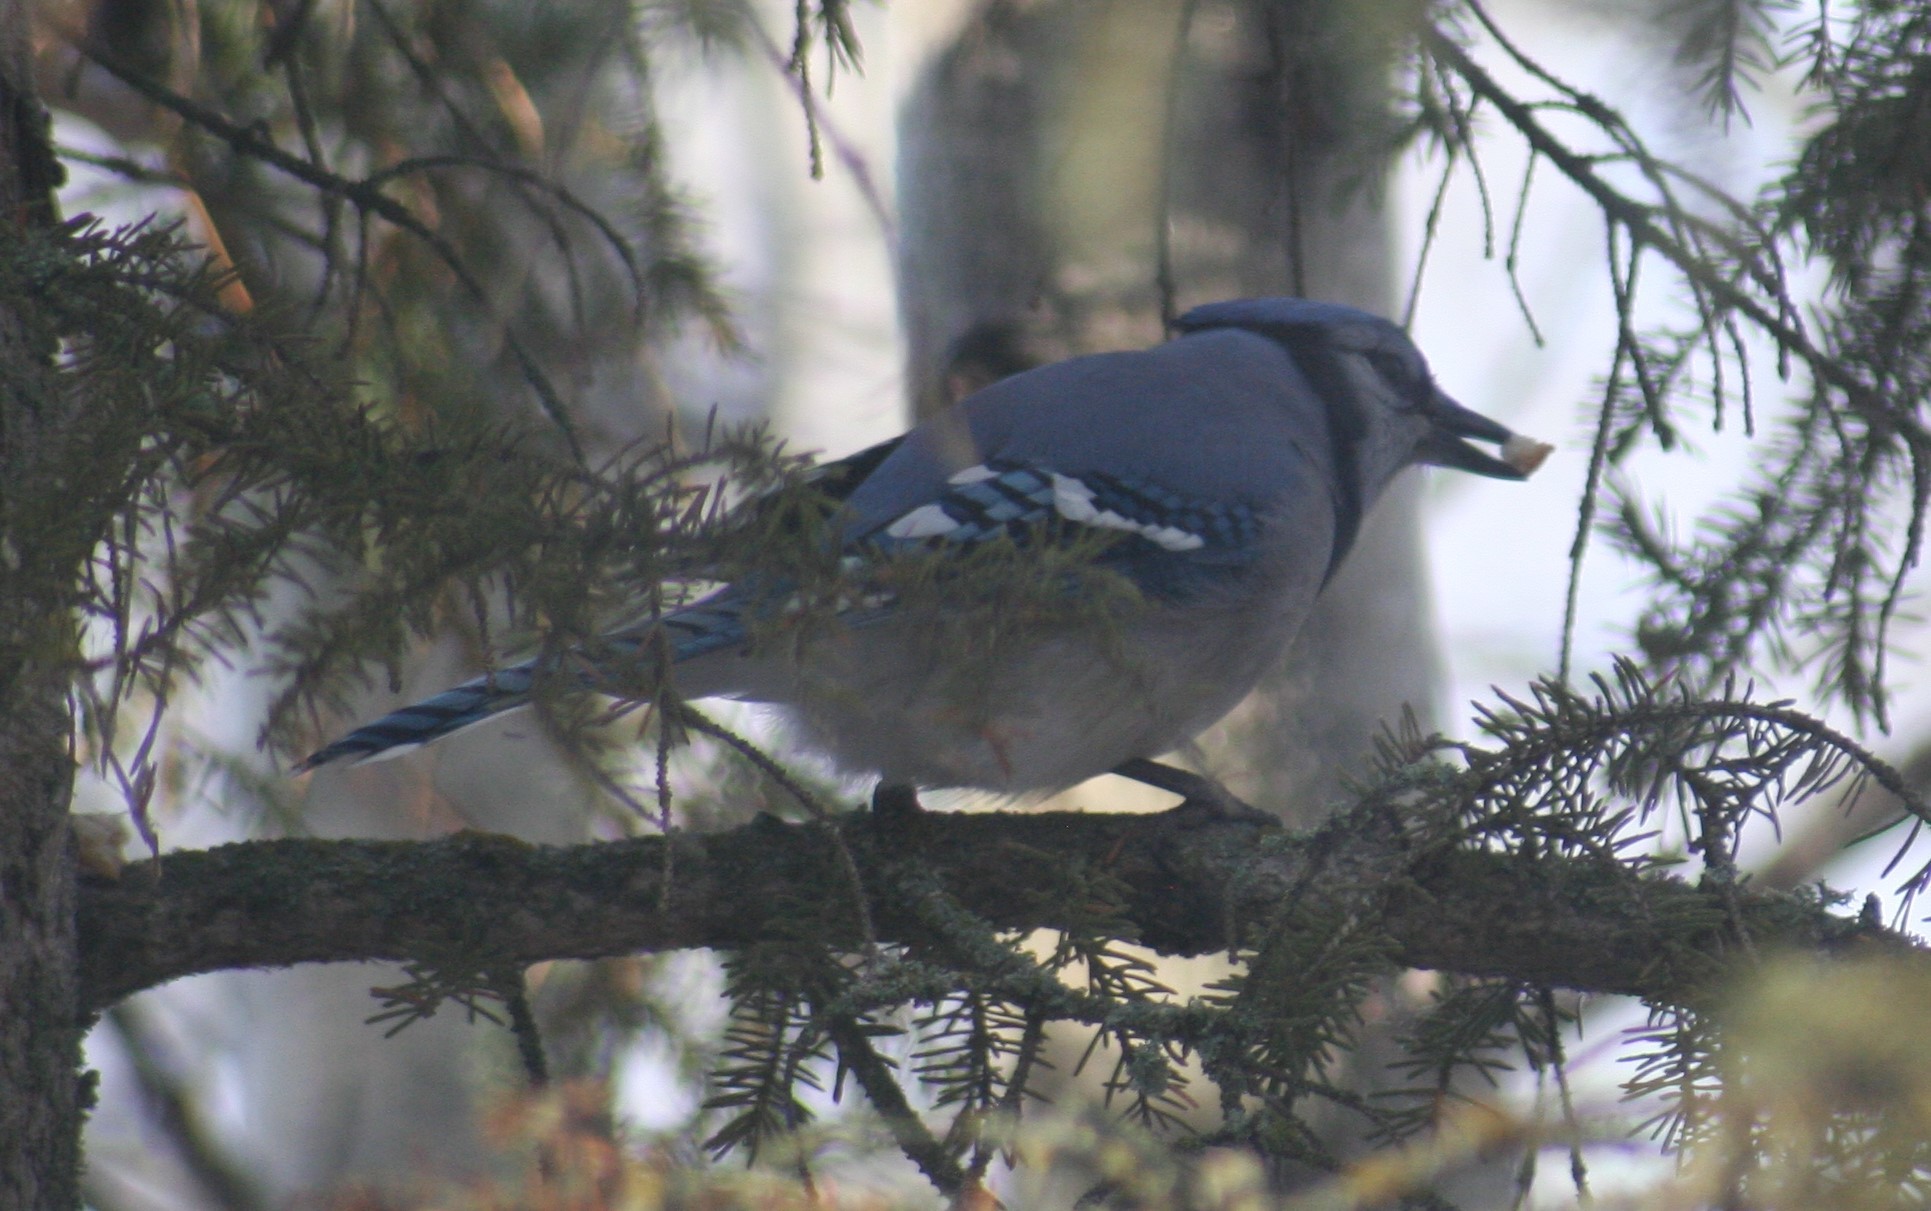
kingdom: Animalia
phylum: Chordata
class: Aves
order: Passeriformes
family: Corvidae
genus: Cyanocitta
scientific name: Cyanocitta cristata
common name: Blue jay
